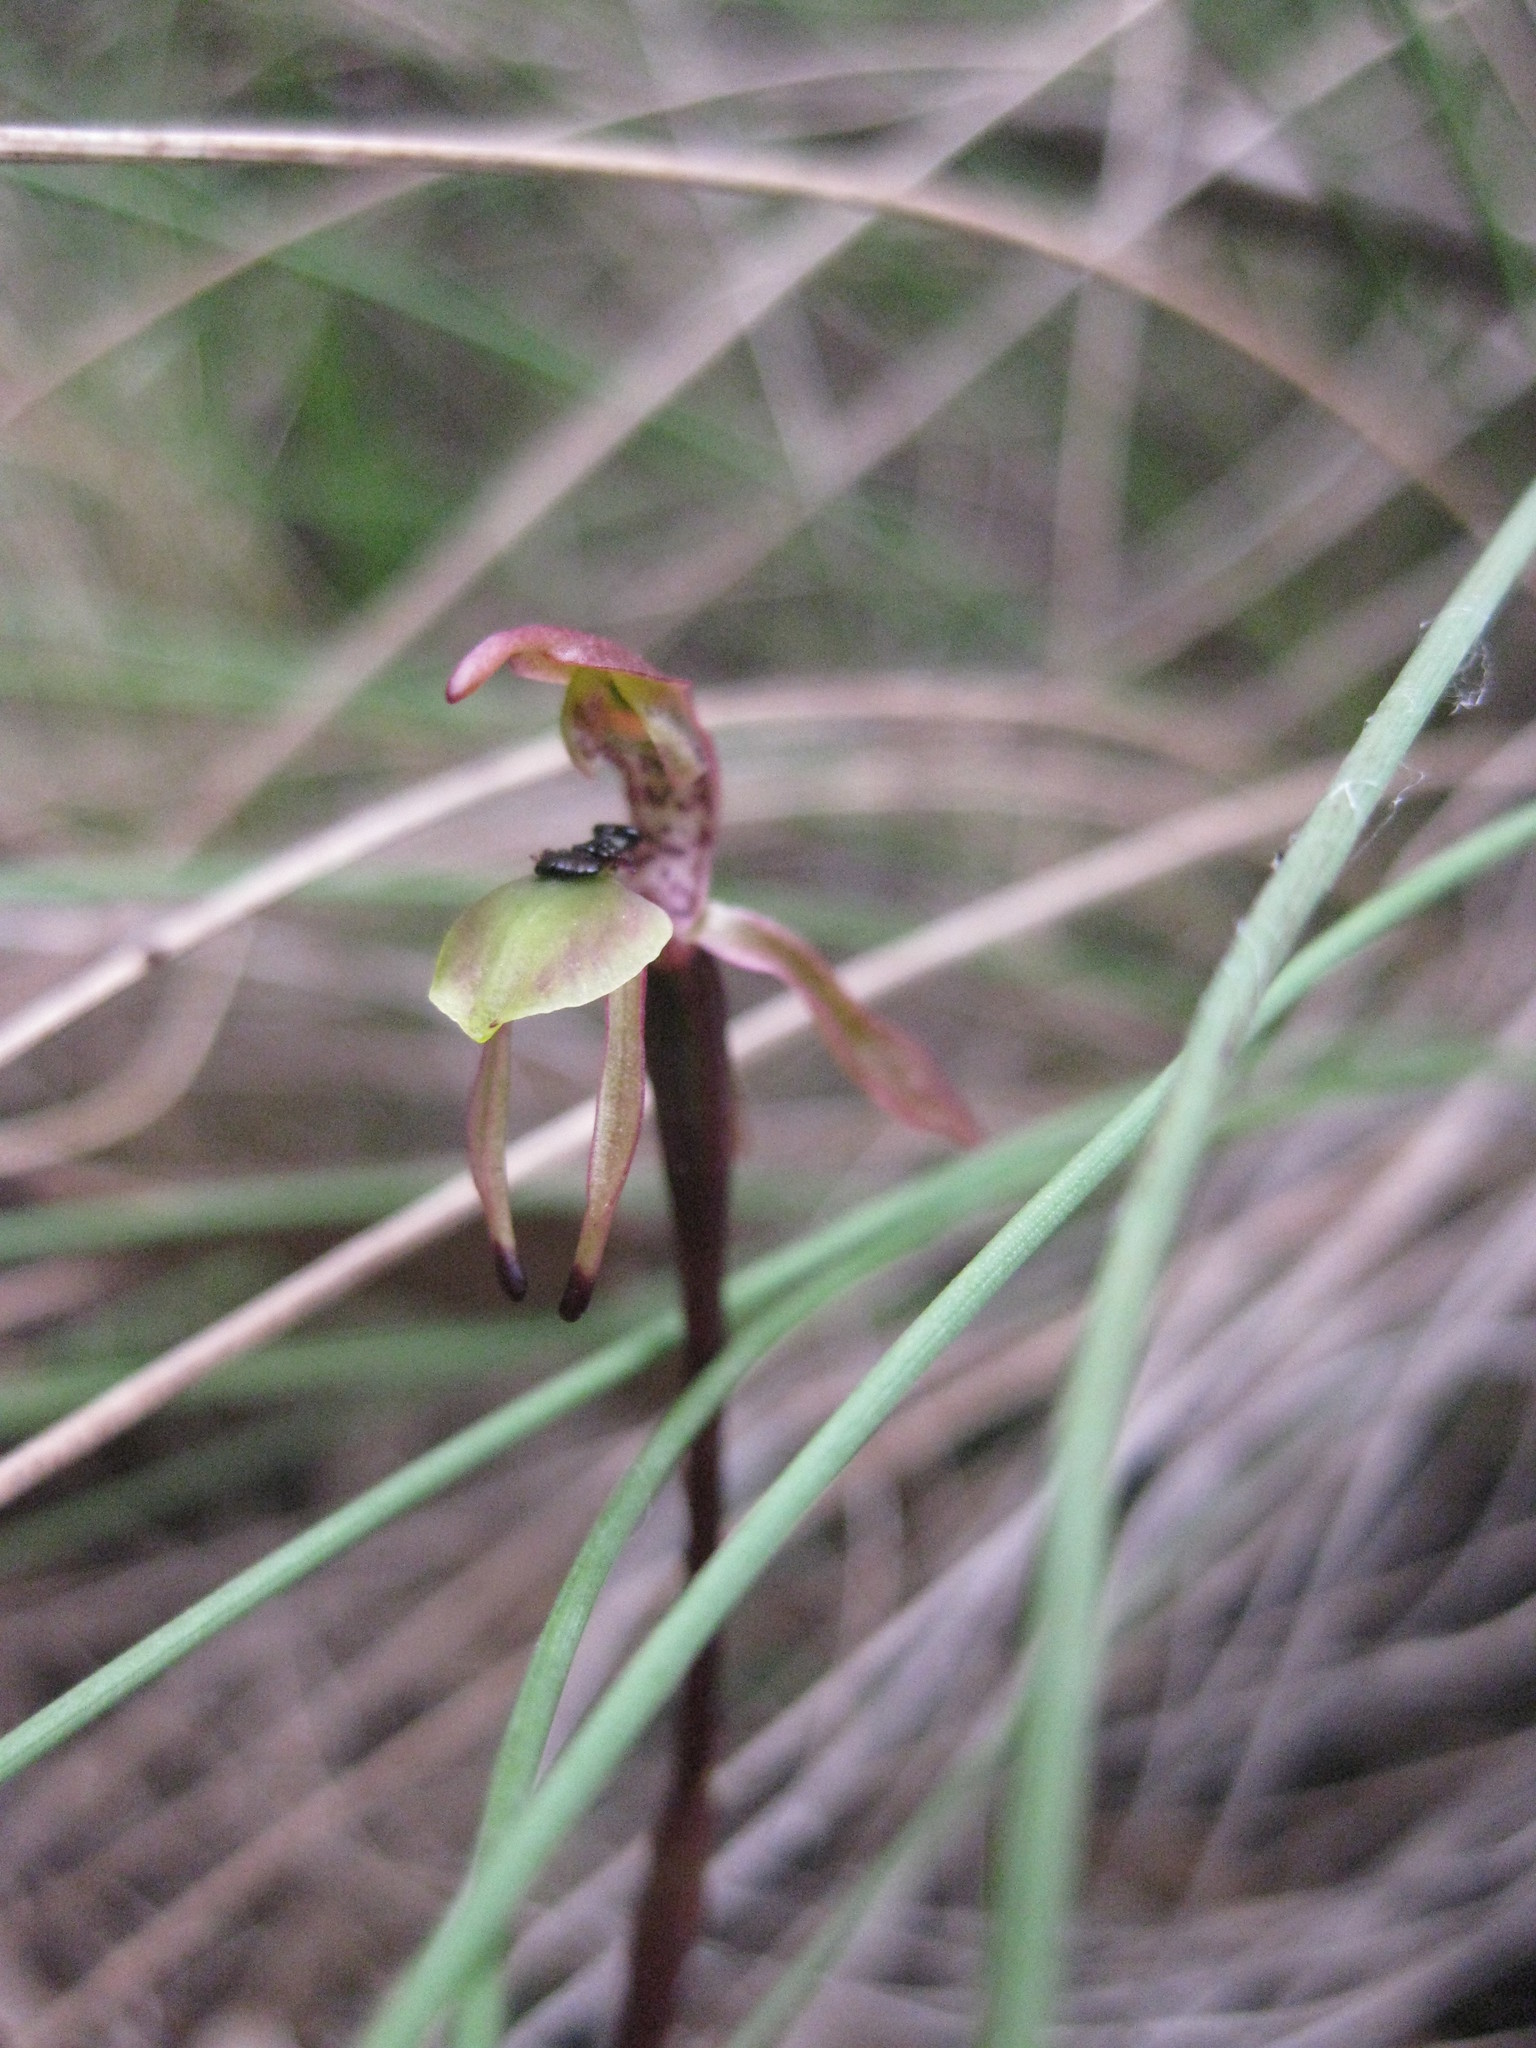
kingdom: Plantae
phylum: Tracheophyta
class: Liliopsida
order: Asparagales
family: Orchidaceae
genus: Chiloglottis
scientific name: Chiloglottis palachila
